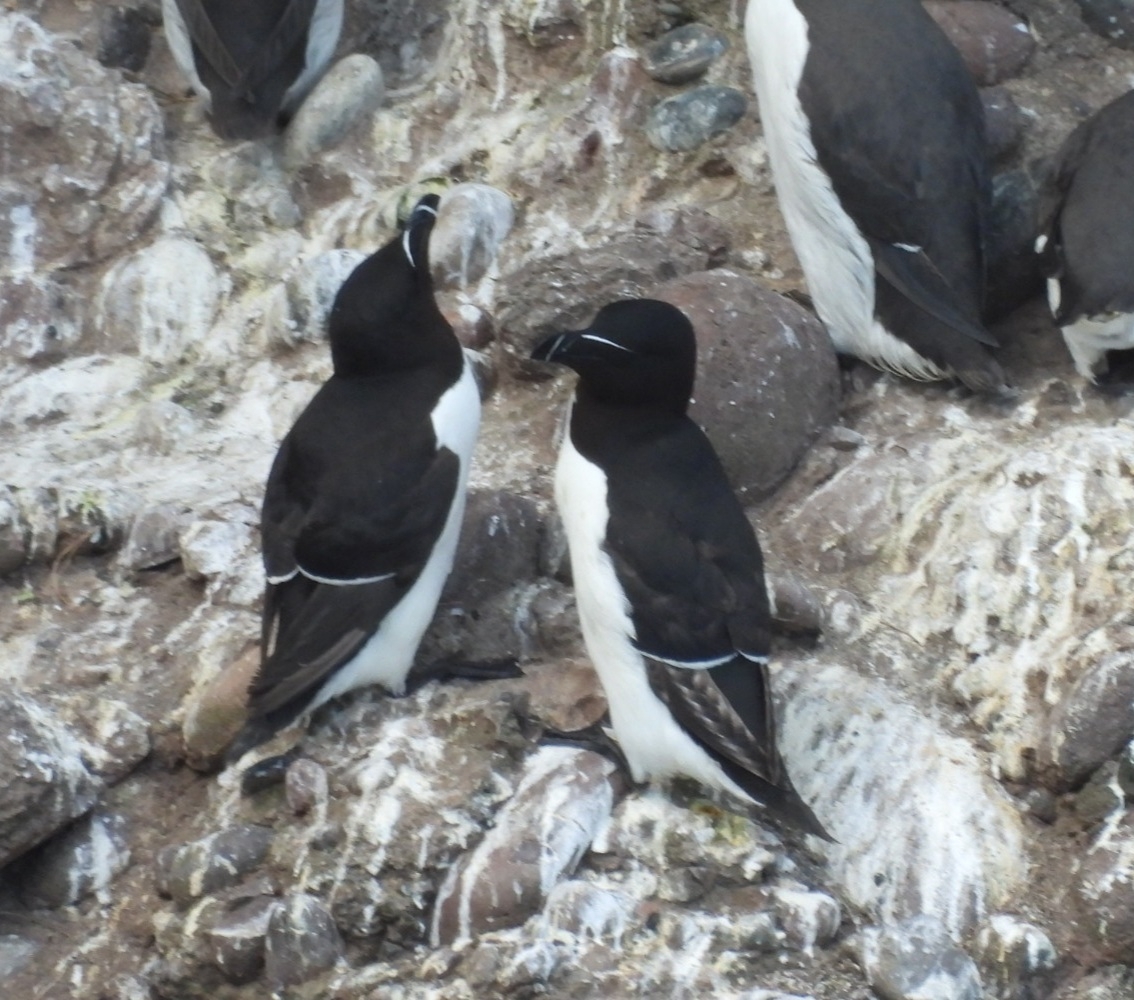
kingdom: Animalia
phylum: Chordata
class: Aves
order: Charadriiformes
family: Alcidae
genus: Alca
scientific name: Alca torda
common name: Razorbill
